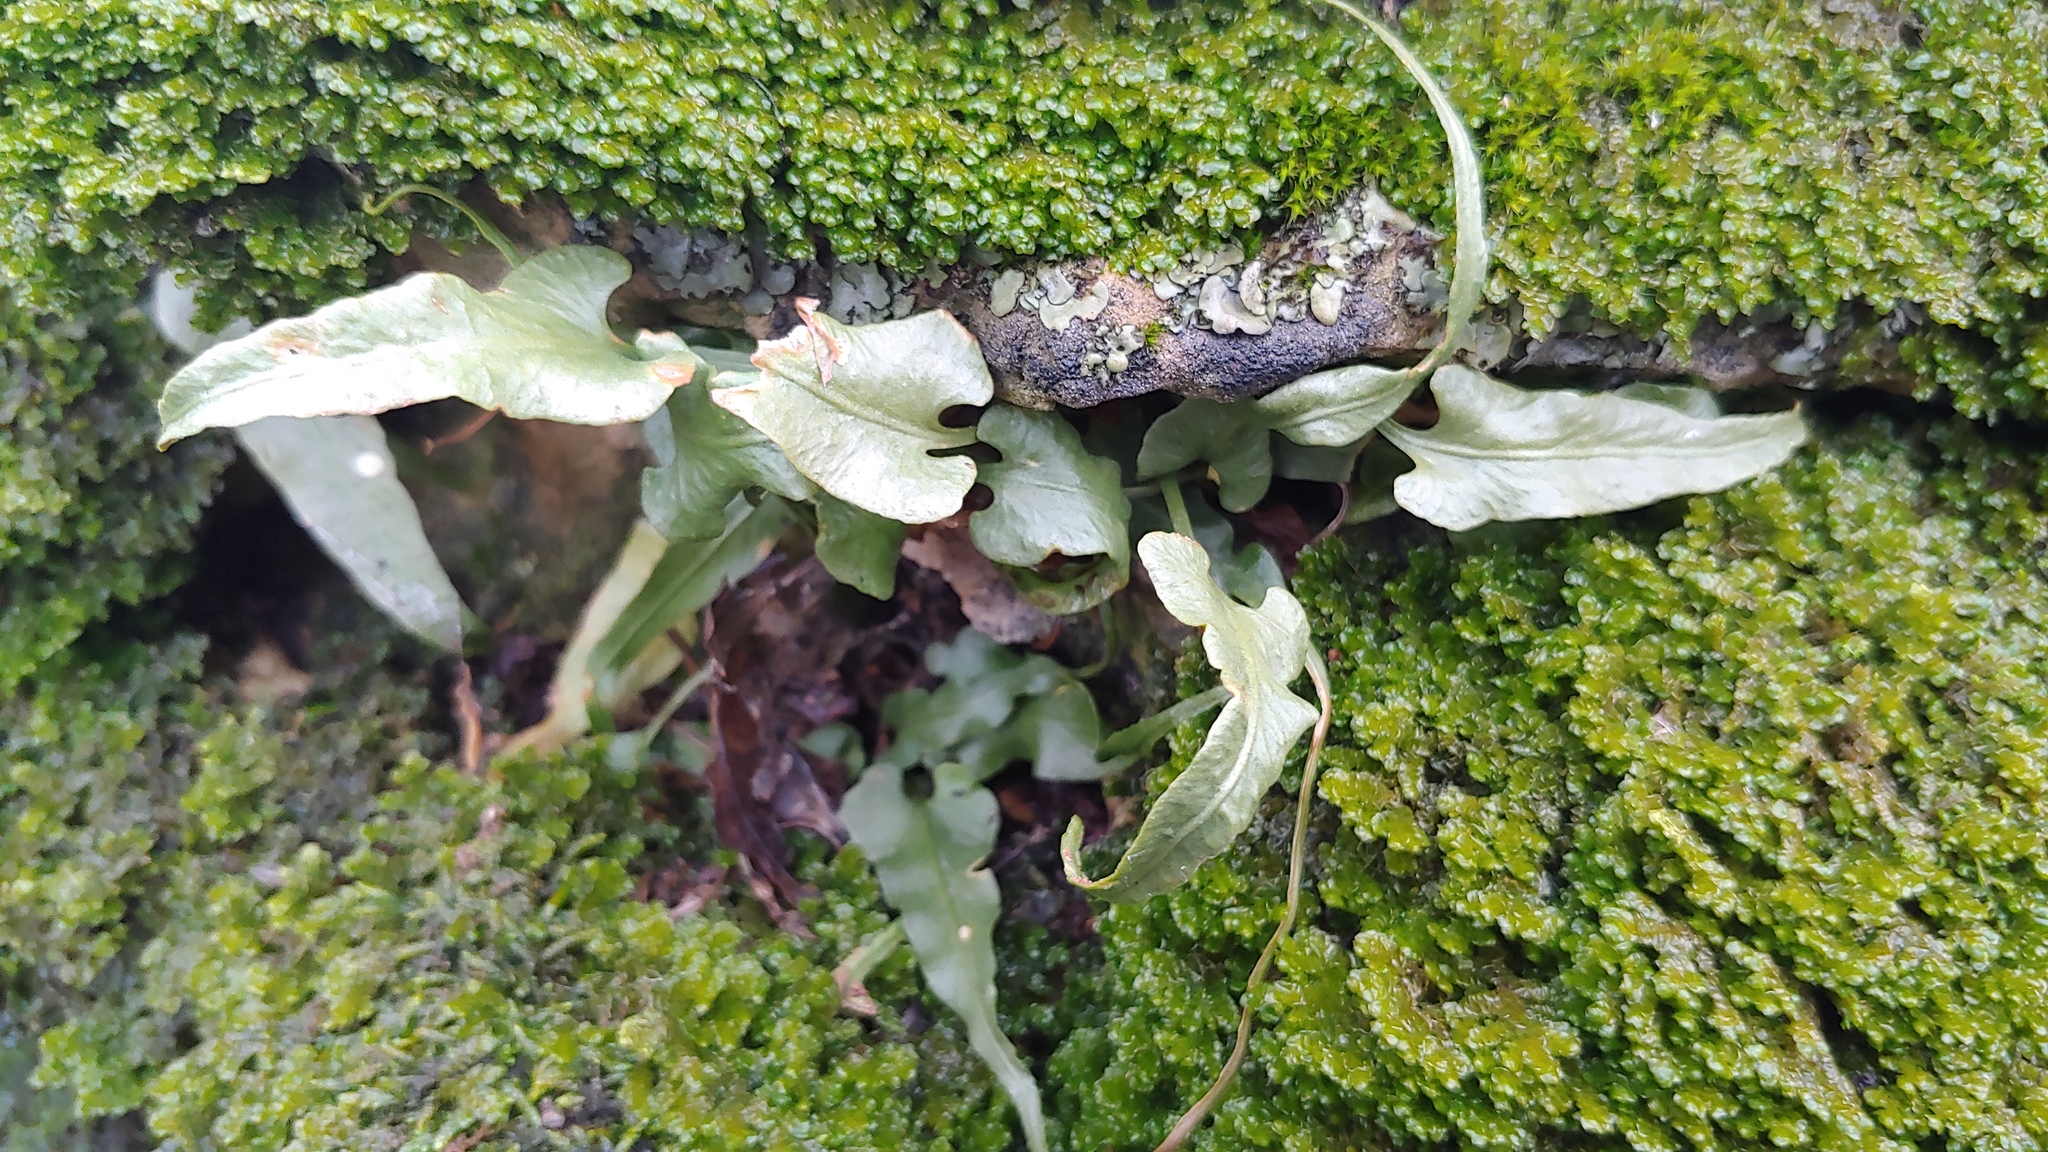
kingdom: Plantae
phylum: Tracheophyta
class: Polypodiopsida
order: Polypodiales
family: Aspleniaceae
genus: Asplenium
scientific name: Asplenium rhizophyllum
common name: Walking fern
